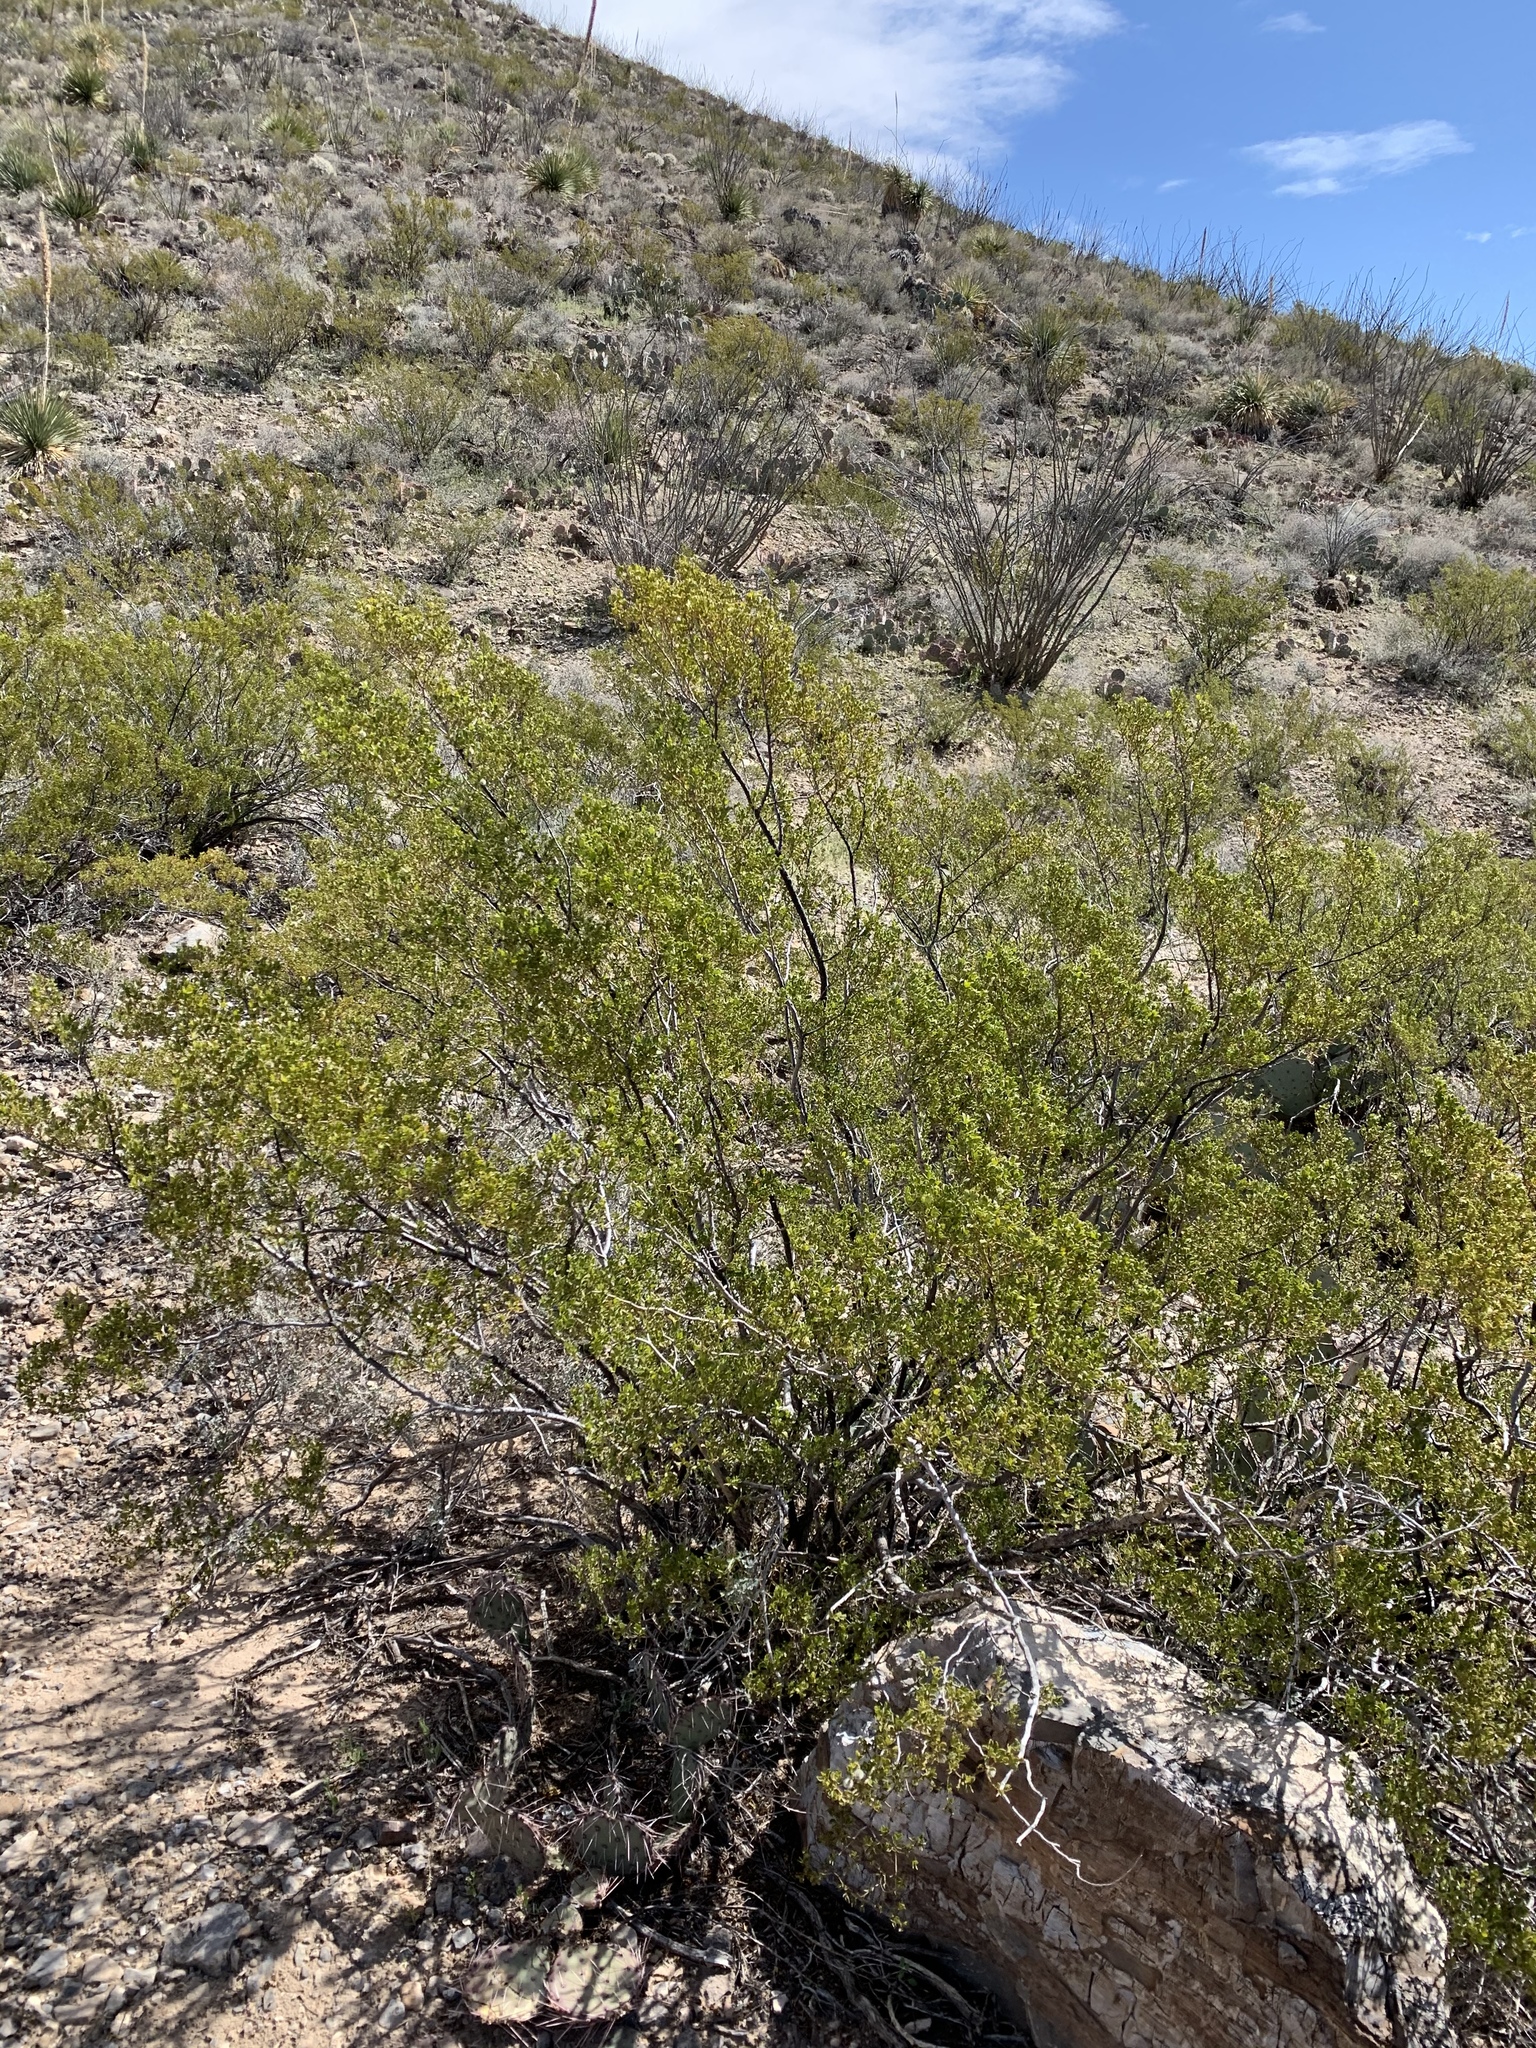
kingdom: Plantae
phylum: Tracheophyta
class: Magnoliopsida
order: Zygophyllales
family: Zygophyllaceae
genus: Larrea
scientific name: Larrea tridentata
